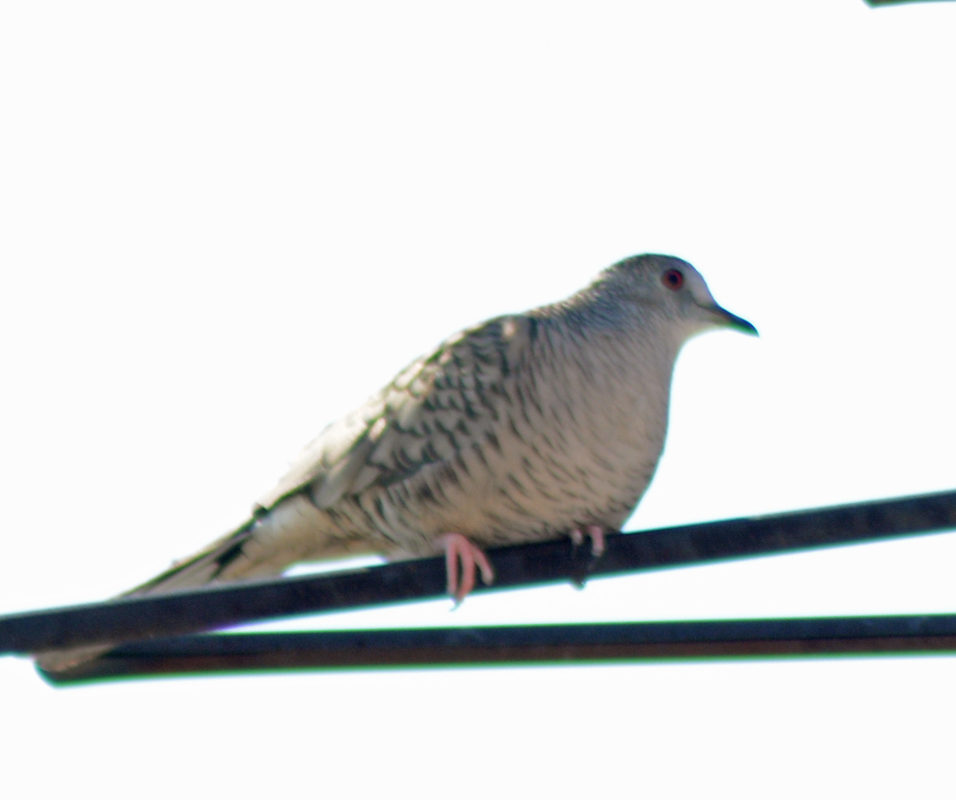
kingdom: Animalia
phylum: Chordata
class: Aves
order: Columbiformes
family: Columbidae
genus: Columbina
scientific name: Columbina inca
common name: Inca dove
